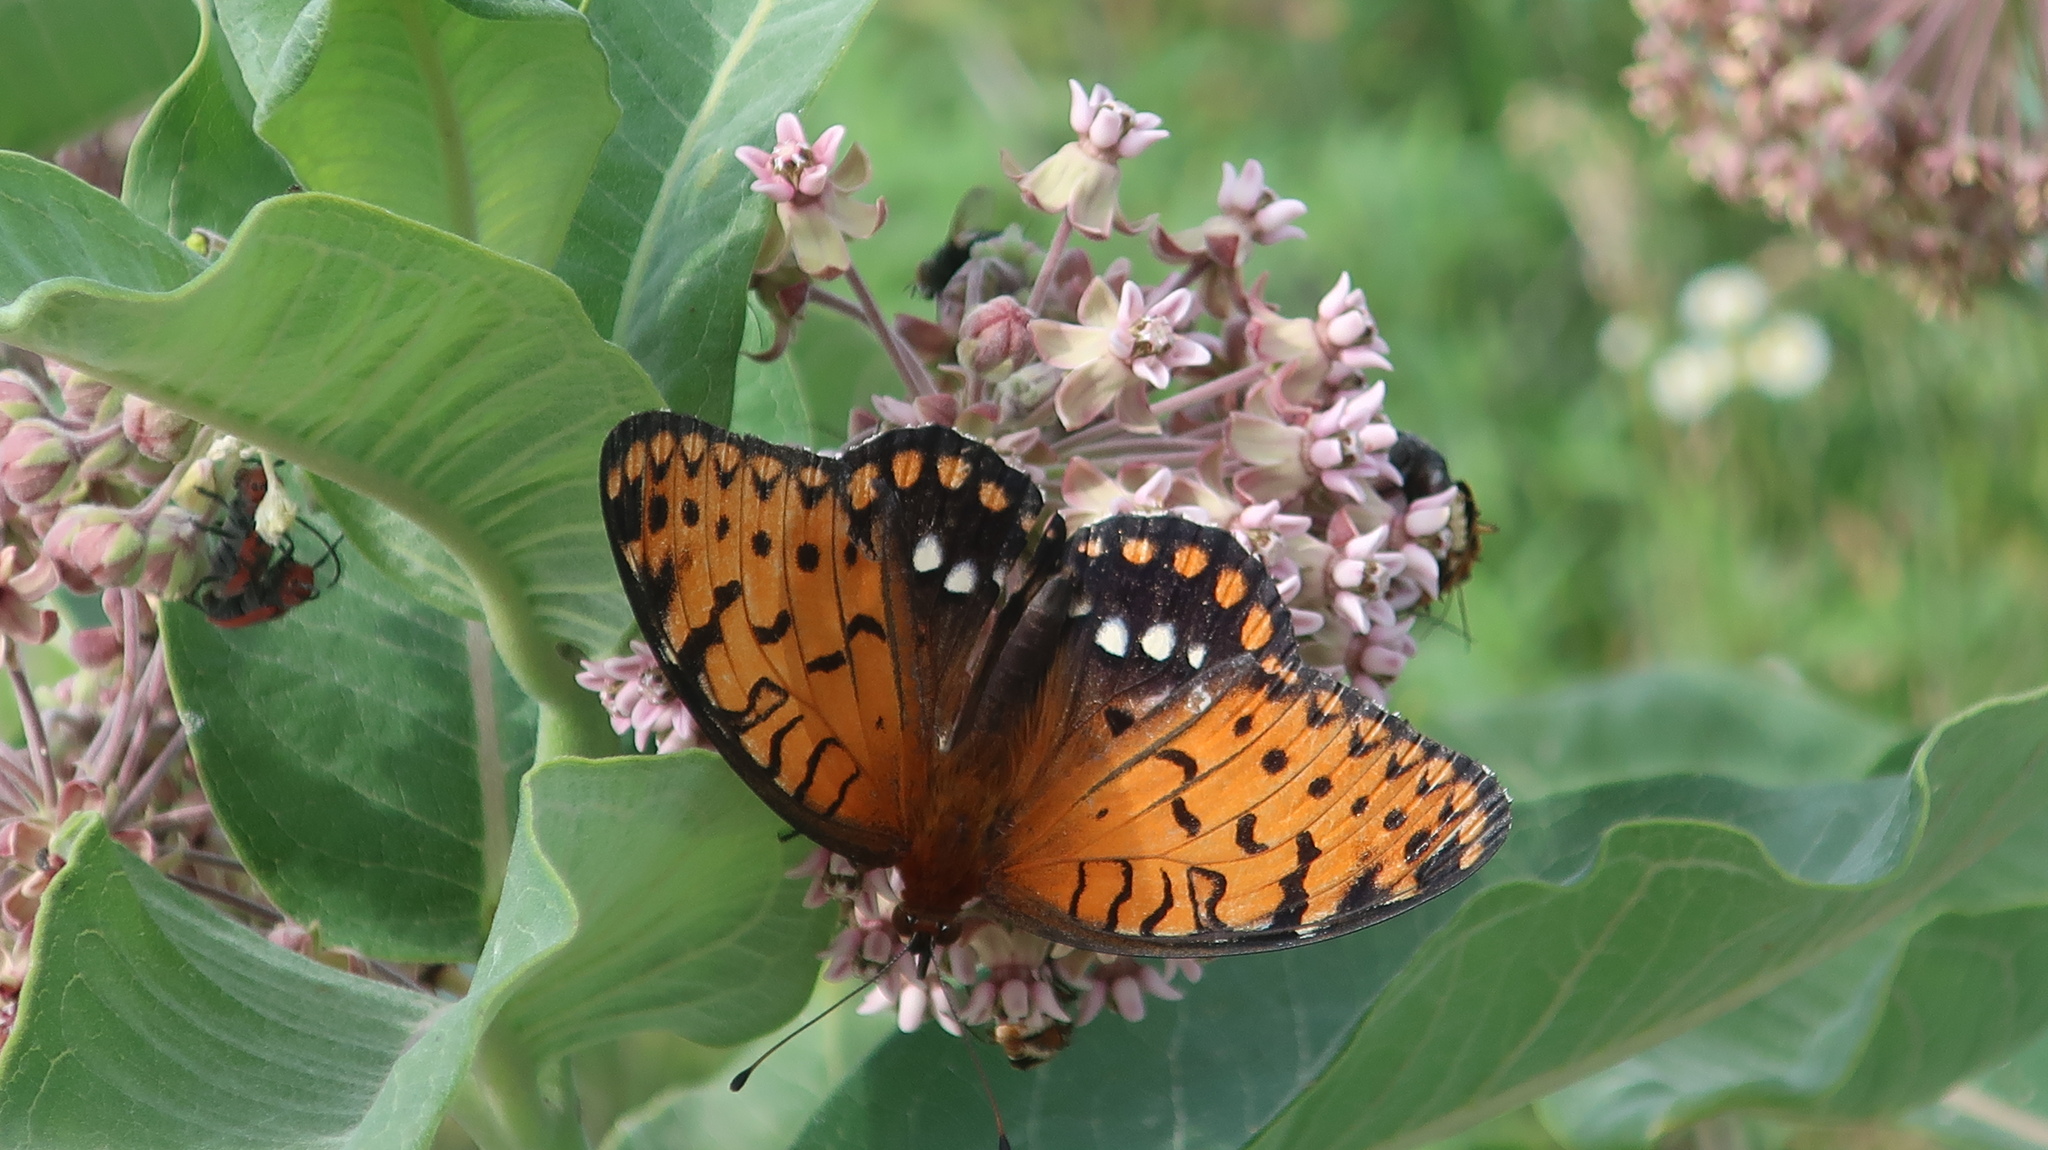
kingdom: Animalia
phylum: Arthropoda
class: Insecta
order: Lepidoptera
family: Nymphalidae
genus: Speyeria
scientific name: Speyeria idalia
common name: Regal fritillary
